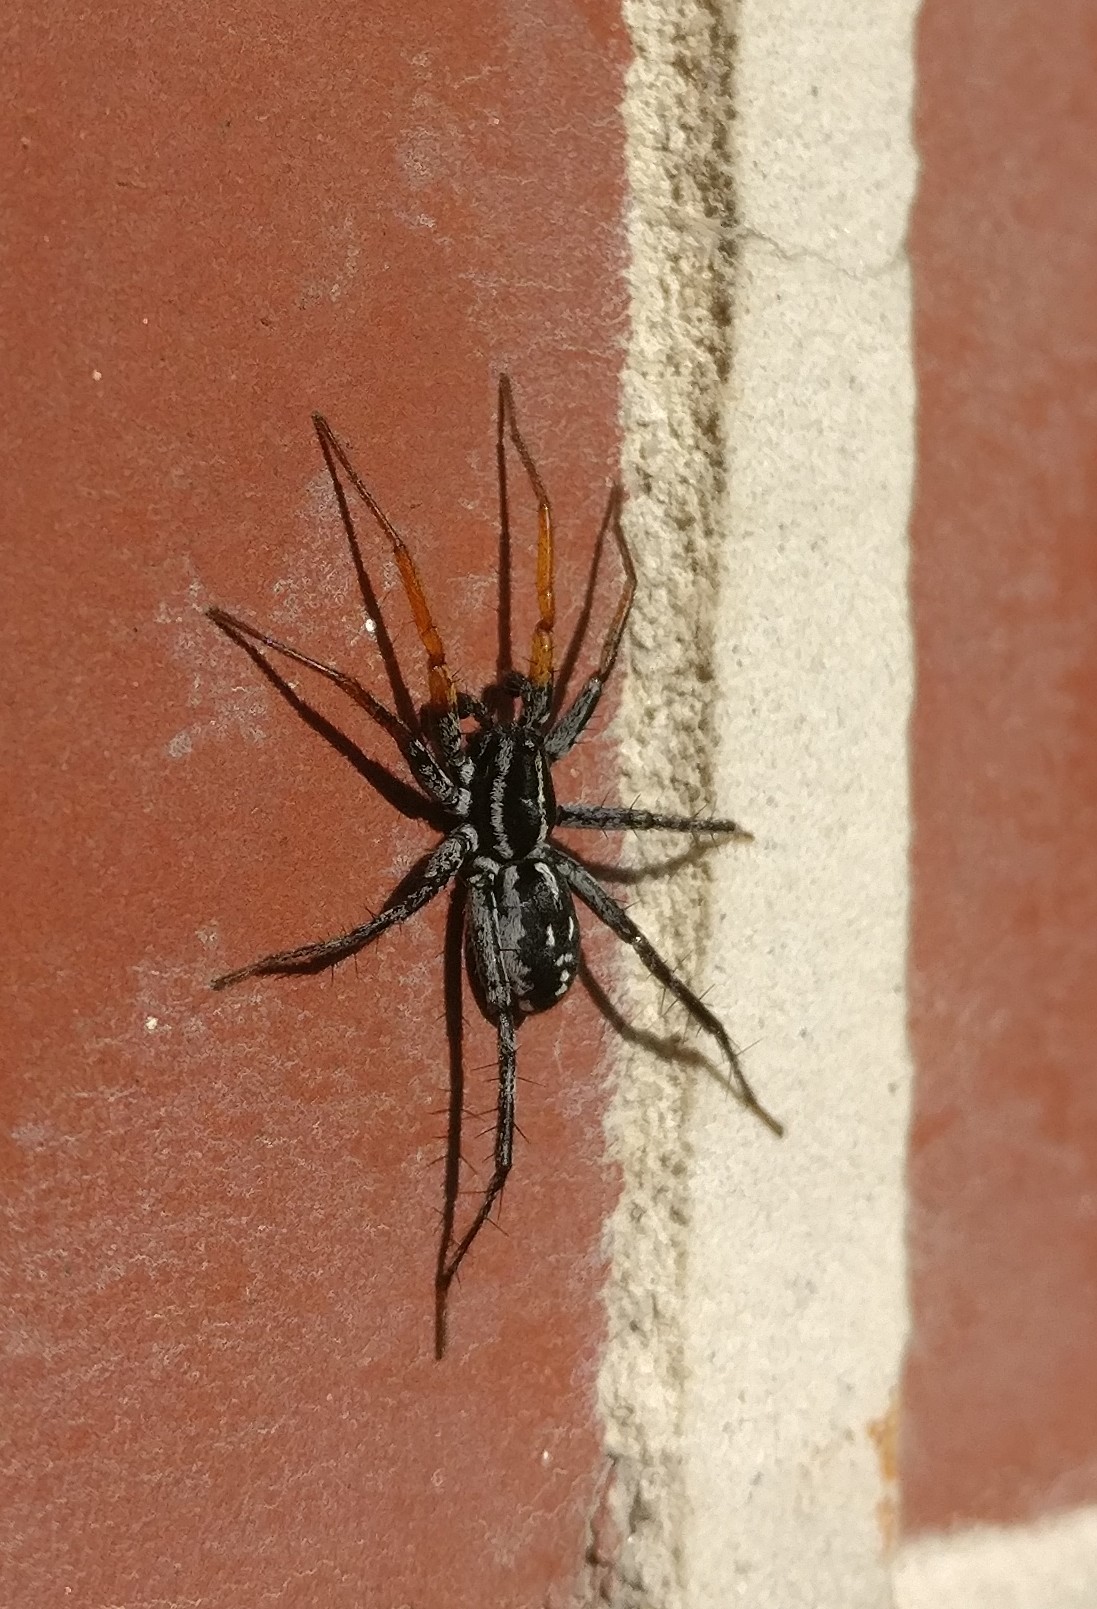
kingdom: Animalia
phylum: Arthropoda
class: Arachnida
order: Araneae
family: Corinnidae
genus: Nyssus
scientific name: Nyssus coloripes
